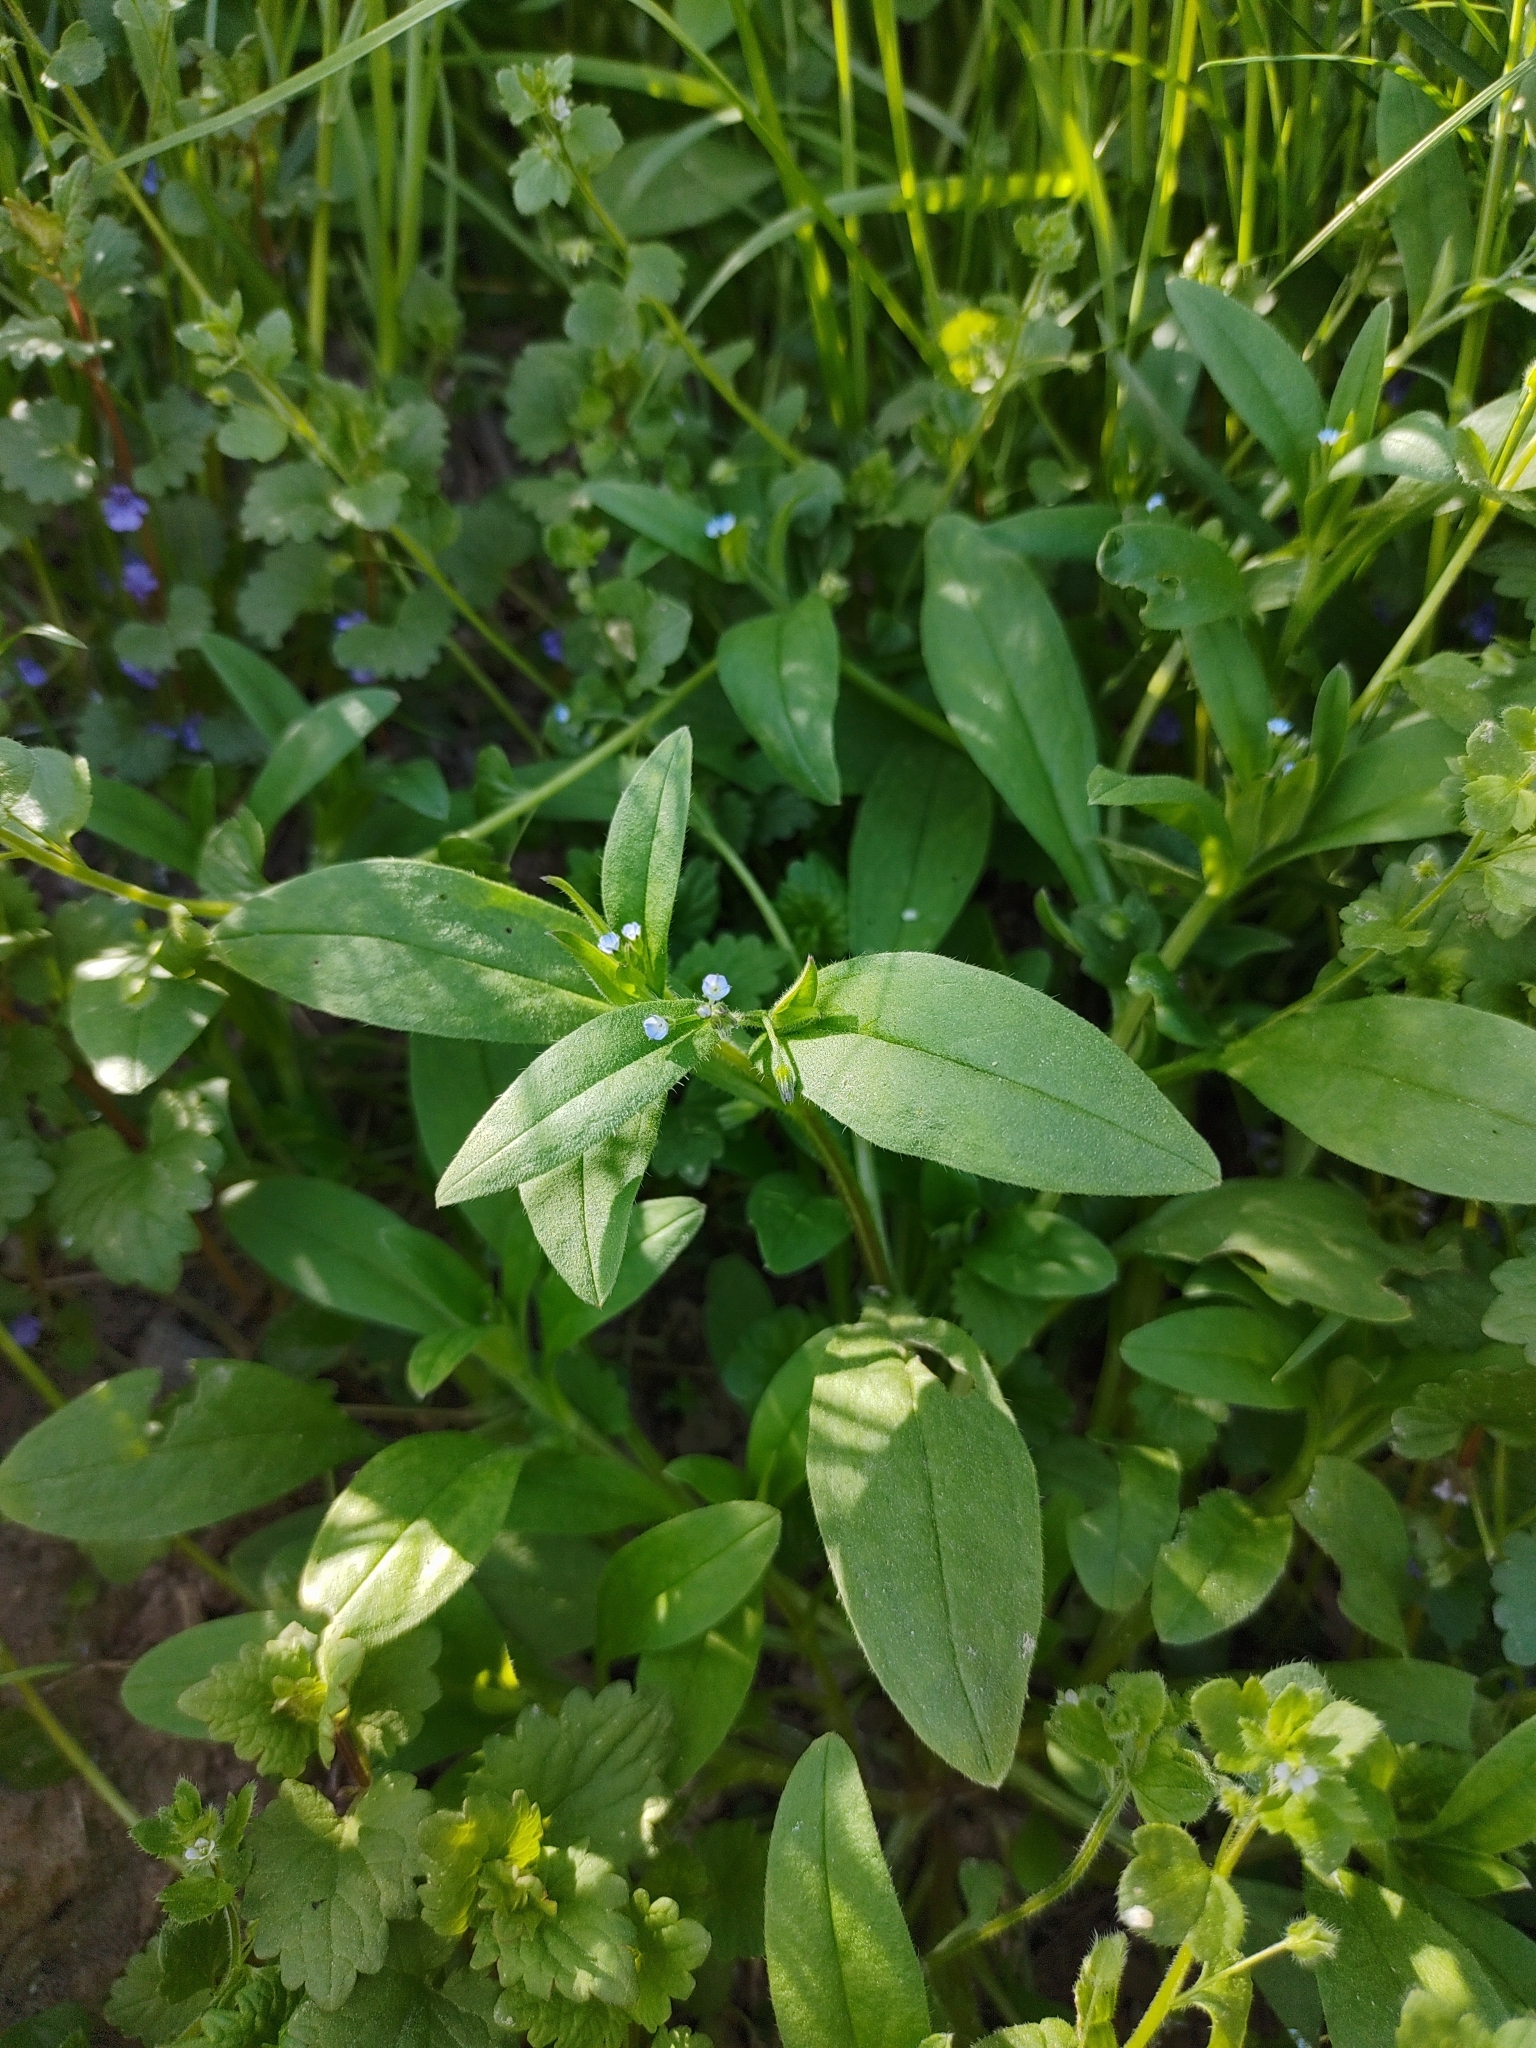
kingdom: Plantae
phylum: Tracheophyta
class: Magnoliopsida
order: Boraginales
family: Boraginaceae
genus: Myosotis
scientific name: Myosotis sparsiflora
